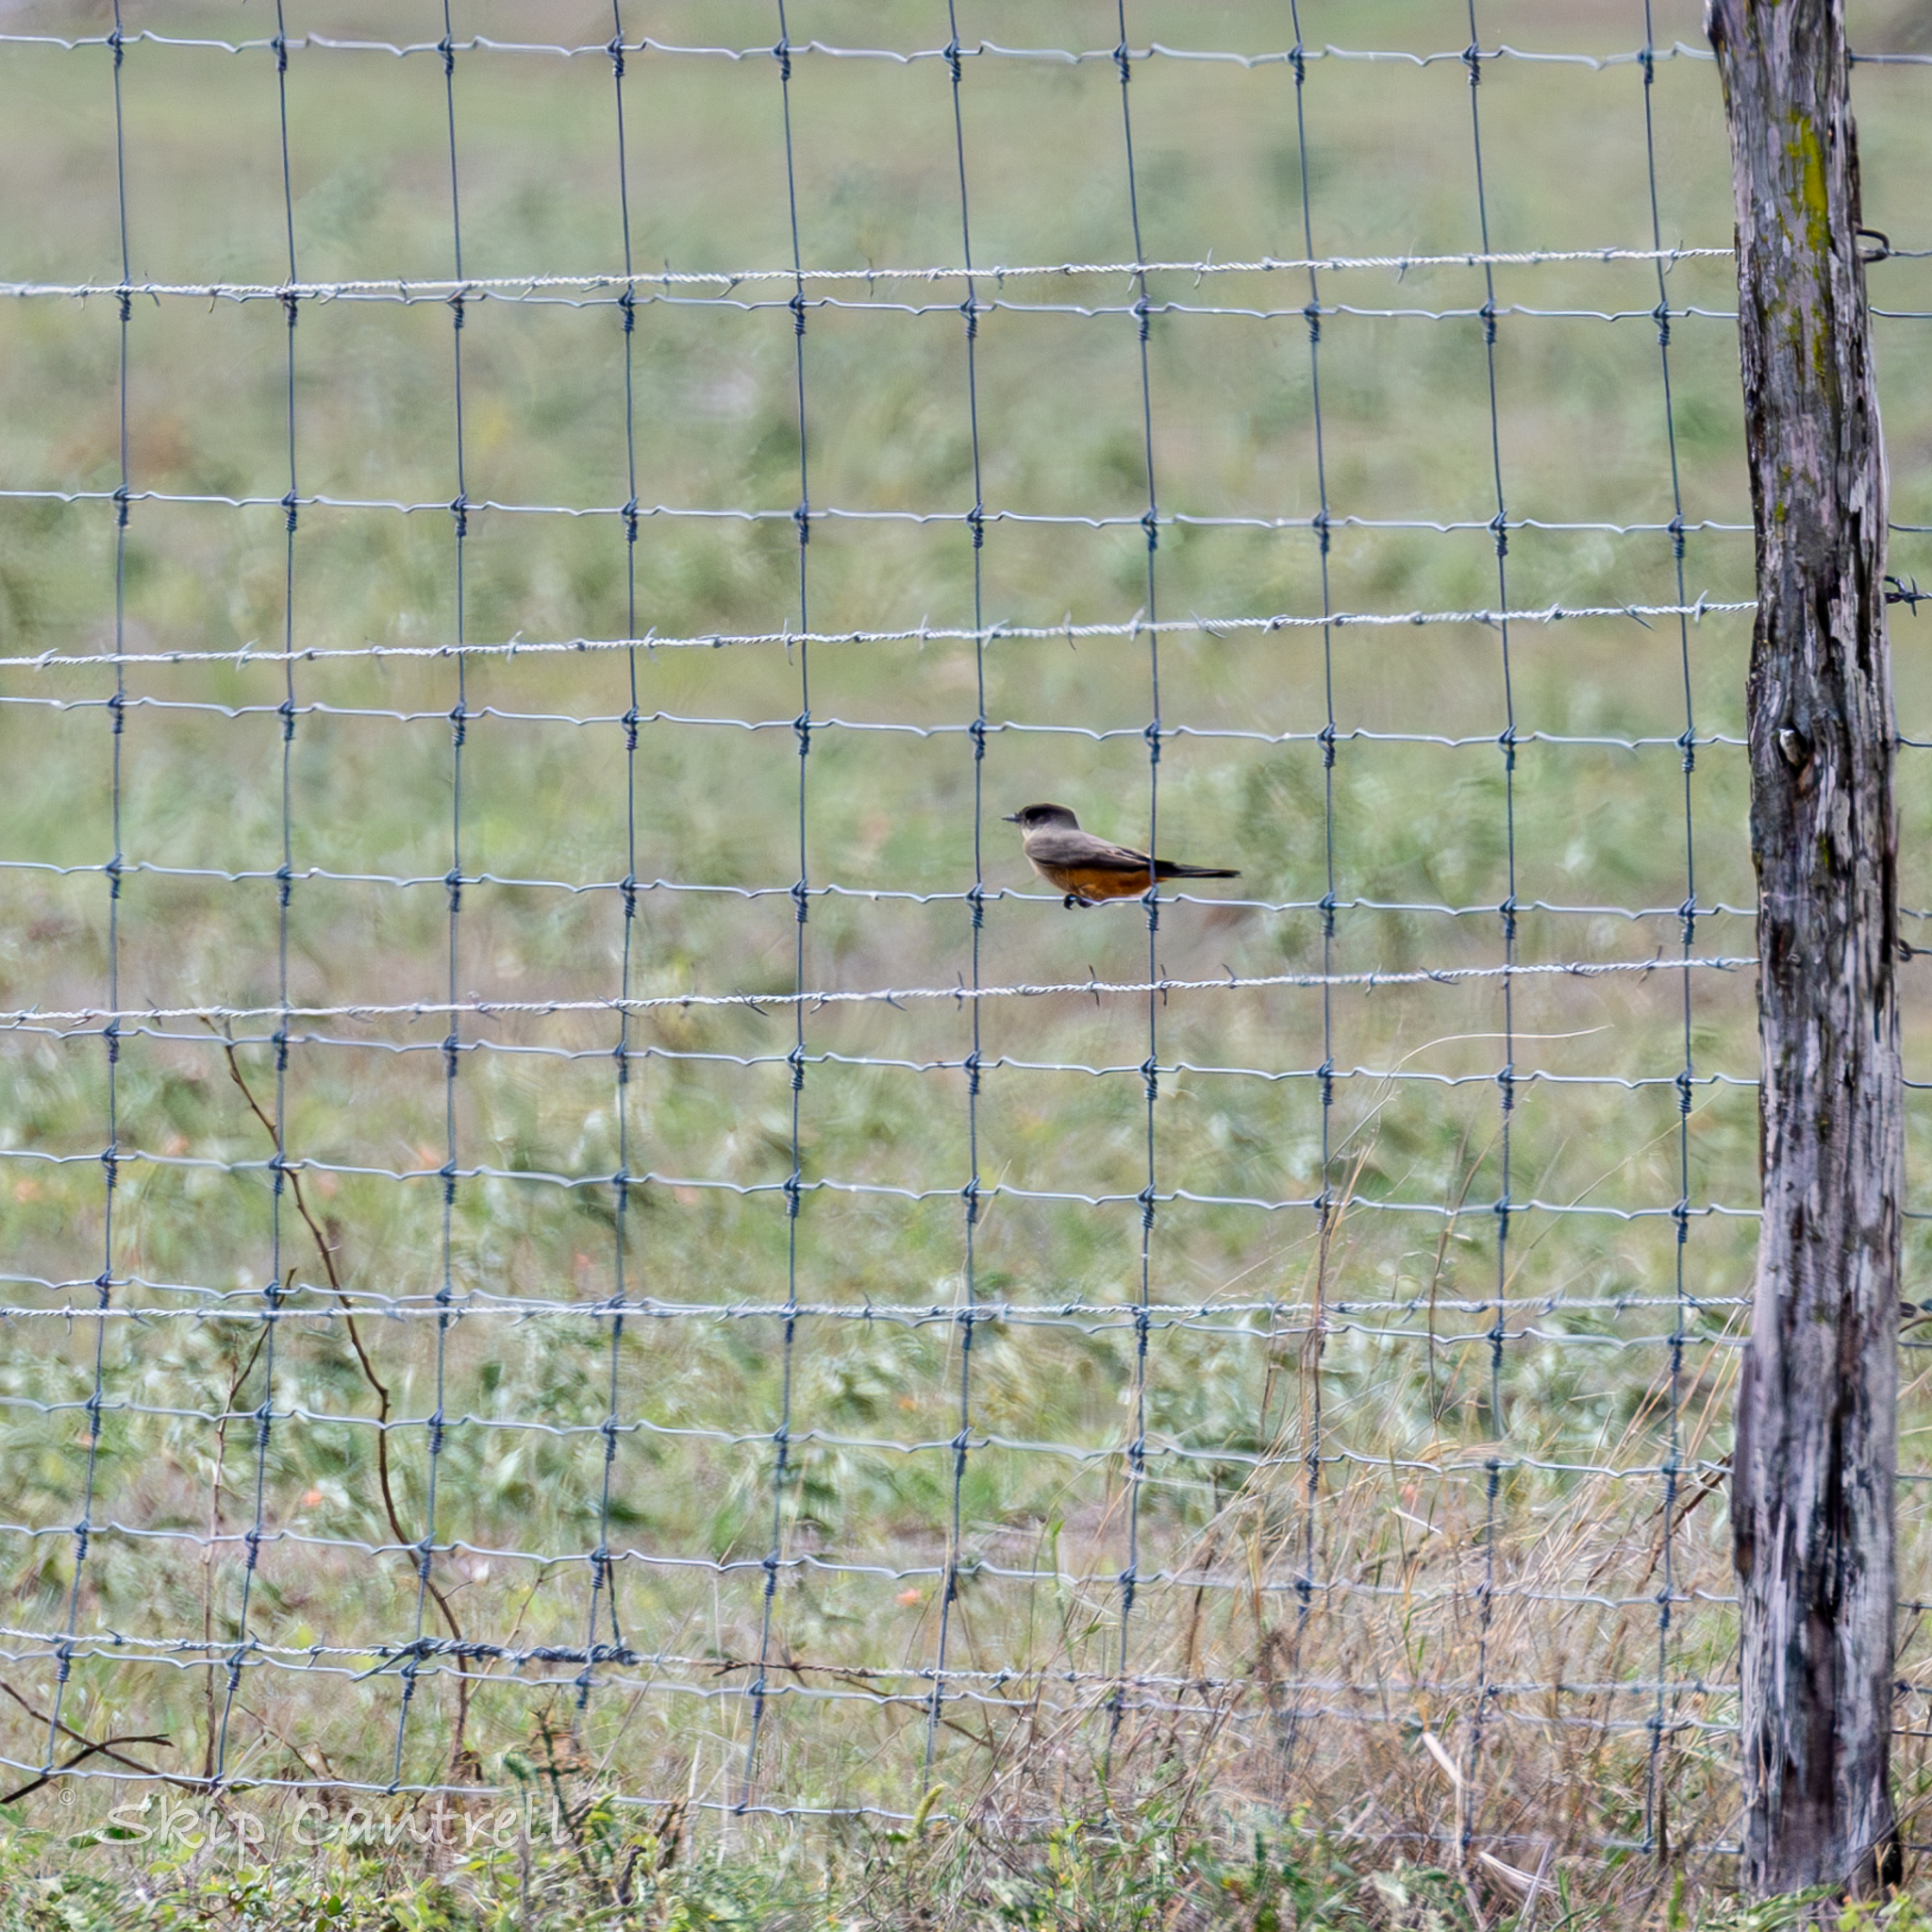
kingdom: Animalia
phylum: Chordata
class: Aves
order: Passeriformes
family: Tyrannidae
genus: Sayornis
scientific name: Sayornis saya
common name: Say's phoebe
